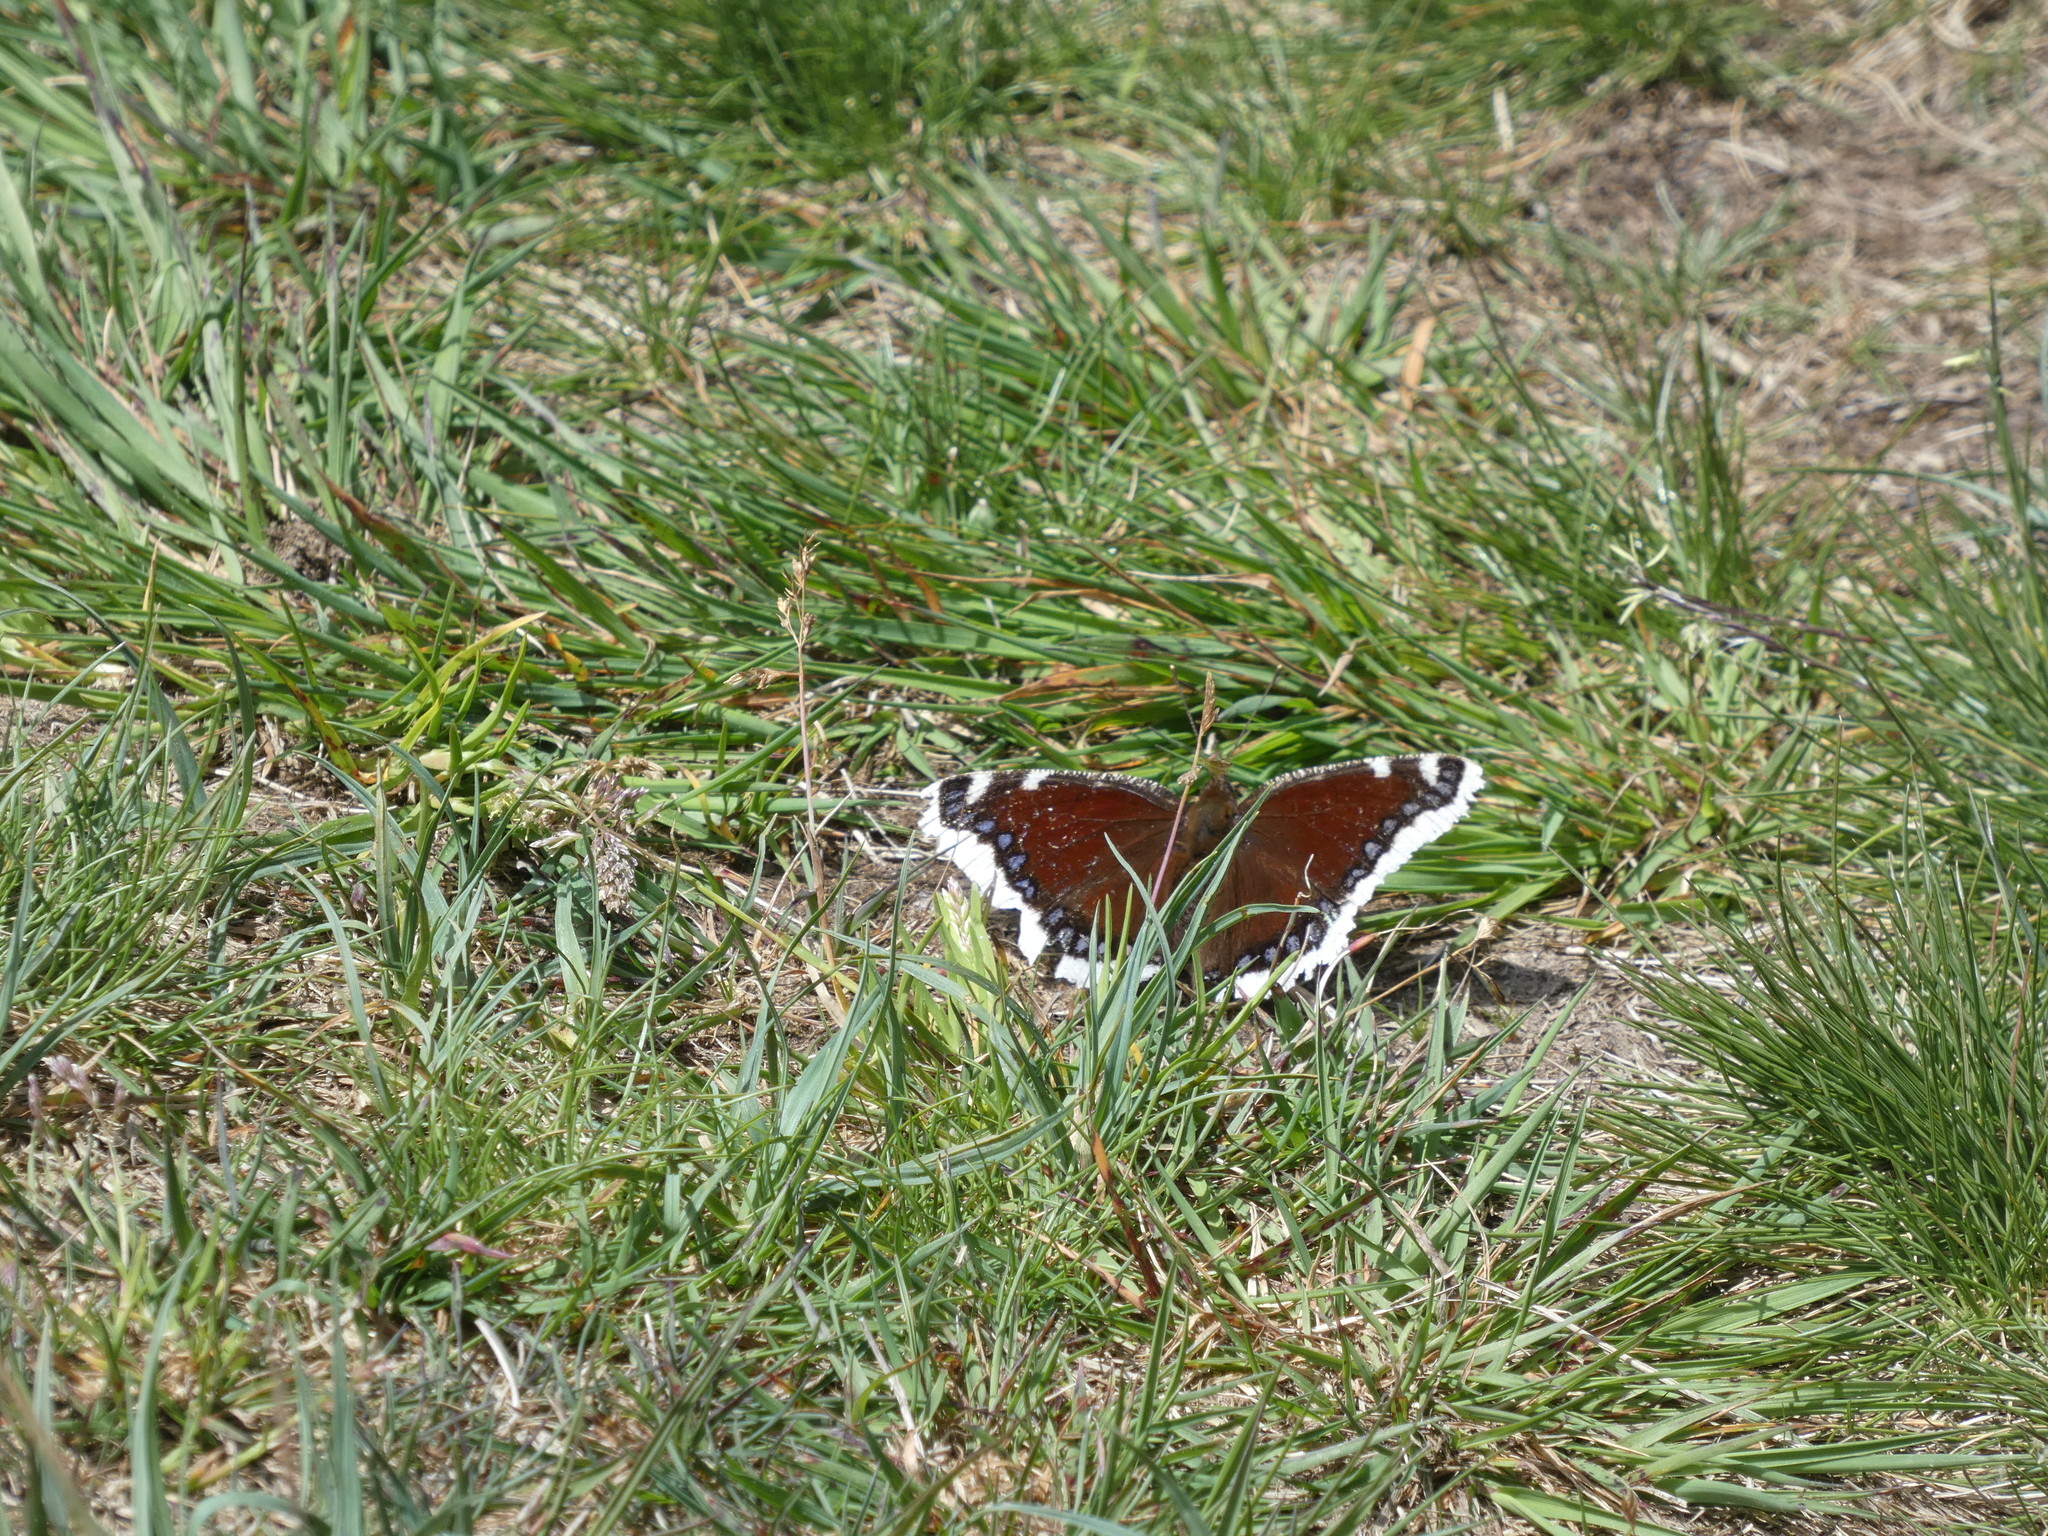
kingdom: Animalia
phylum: Arthropoda
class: Insecta
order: Lepidoptera
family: Nymphalidae
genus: Nymphalis
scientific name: Nymphalis antiopa
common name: Camberwell beauty
